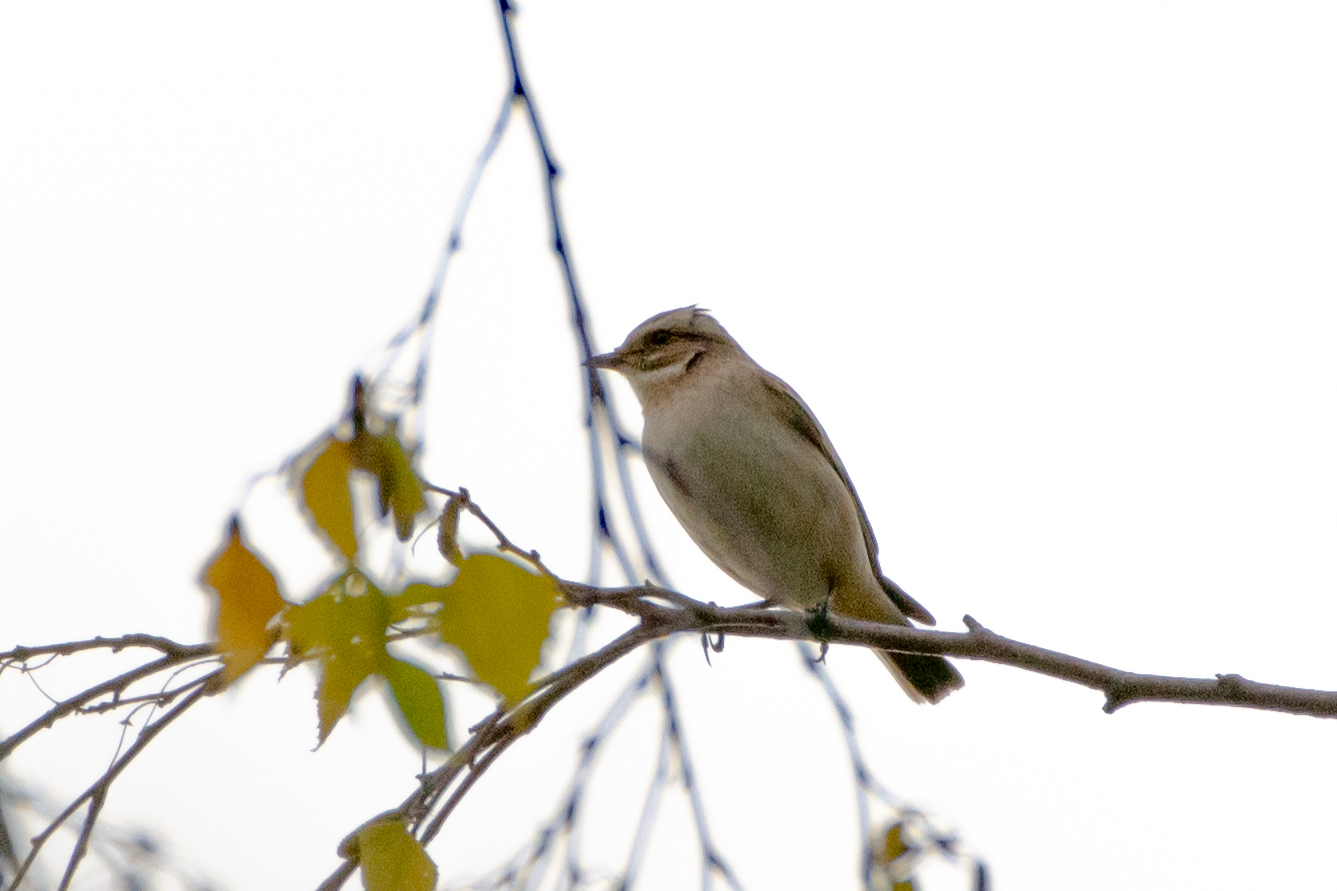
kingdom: Animalia
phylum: Chordata
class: Aves
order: Passeriformes
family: Muscicapidae
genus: Saxicola
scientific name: Saxicola rubetra
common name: Whinchat
